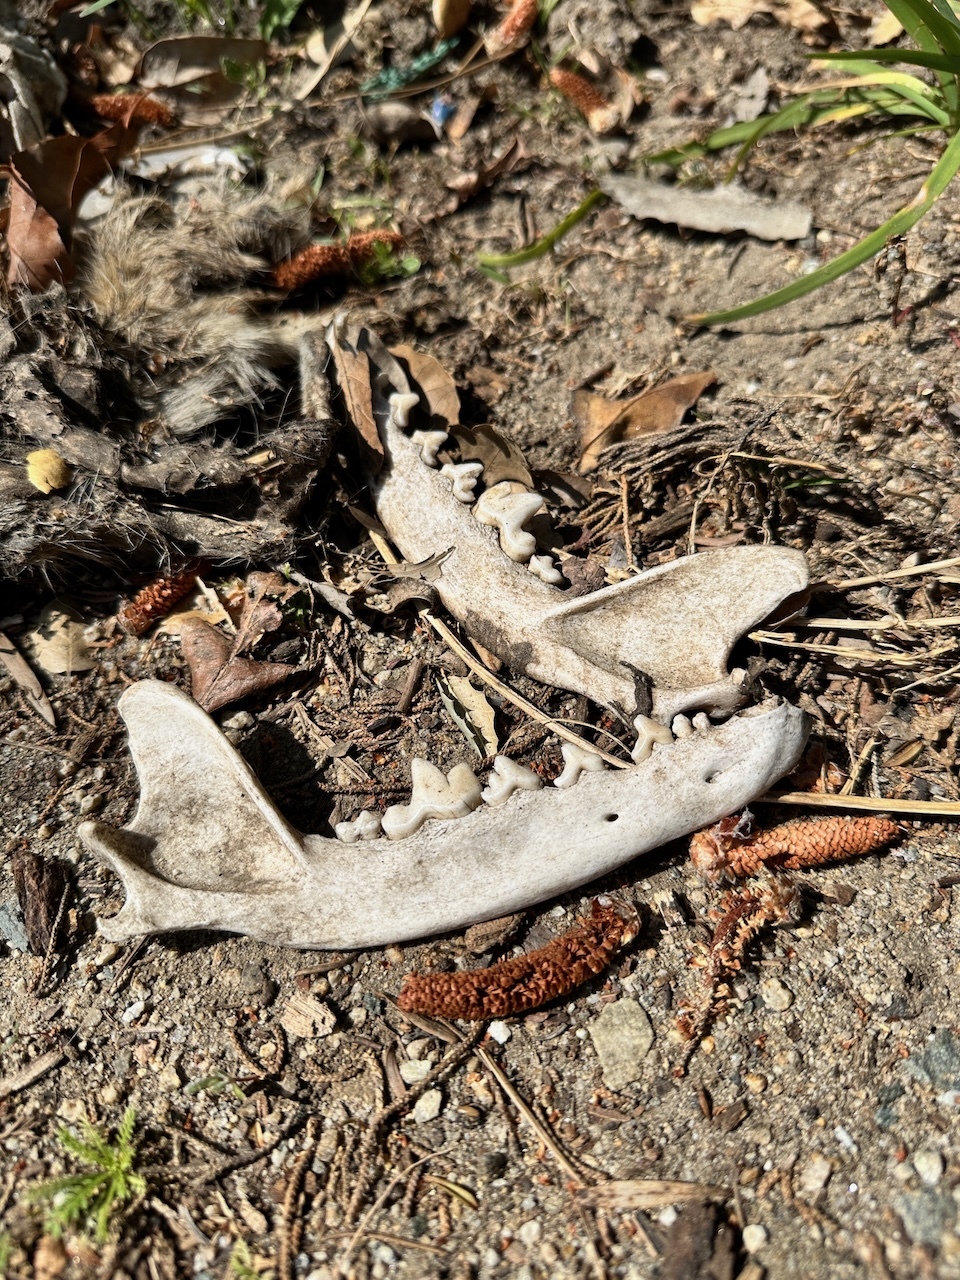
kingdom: Animalia
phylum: Chordata
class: Mammalia
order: Carnivora
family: Canidae
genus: Canis
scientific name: Canis latrans
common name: Coyote
